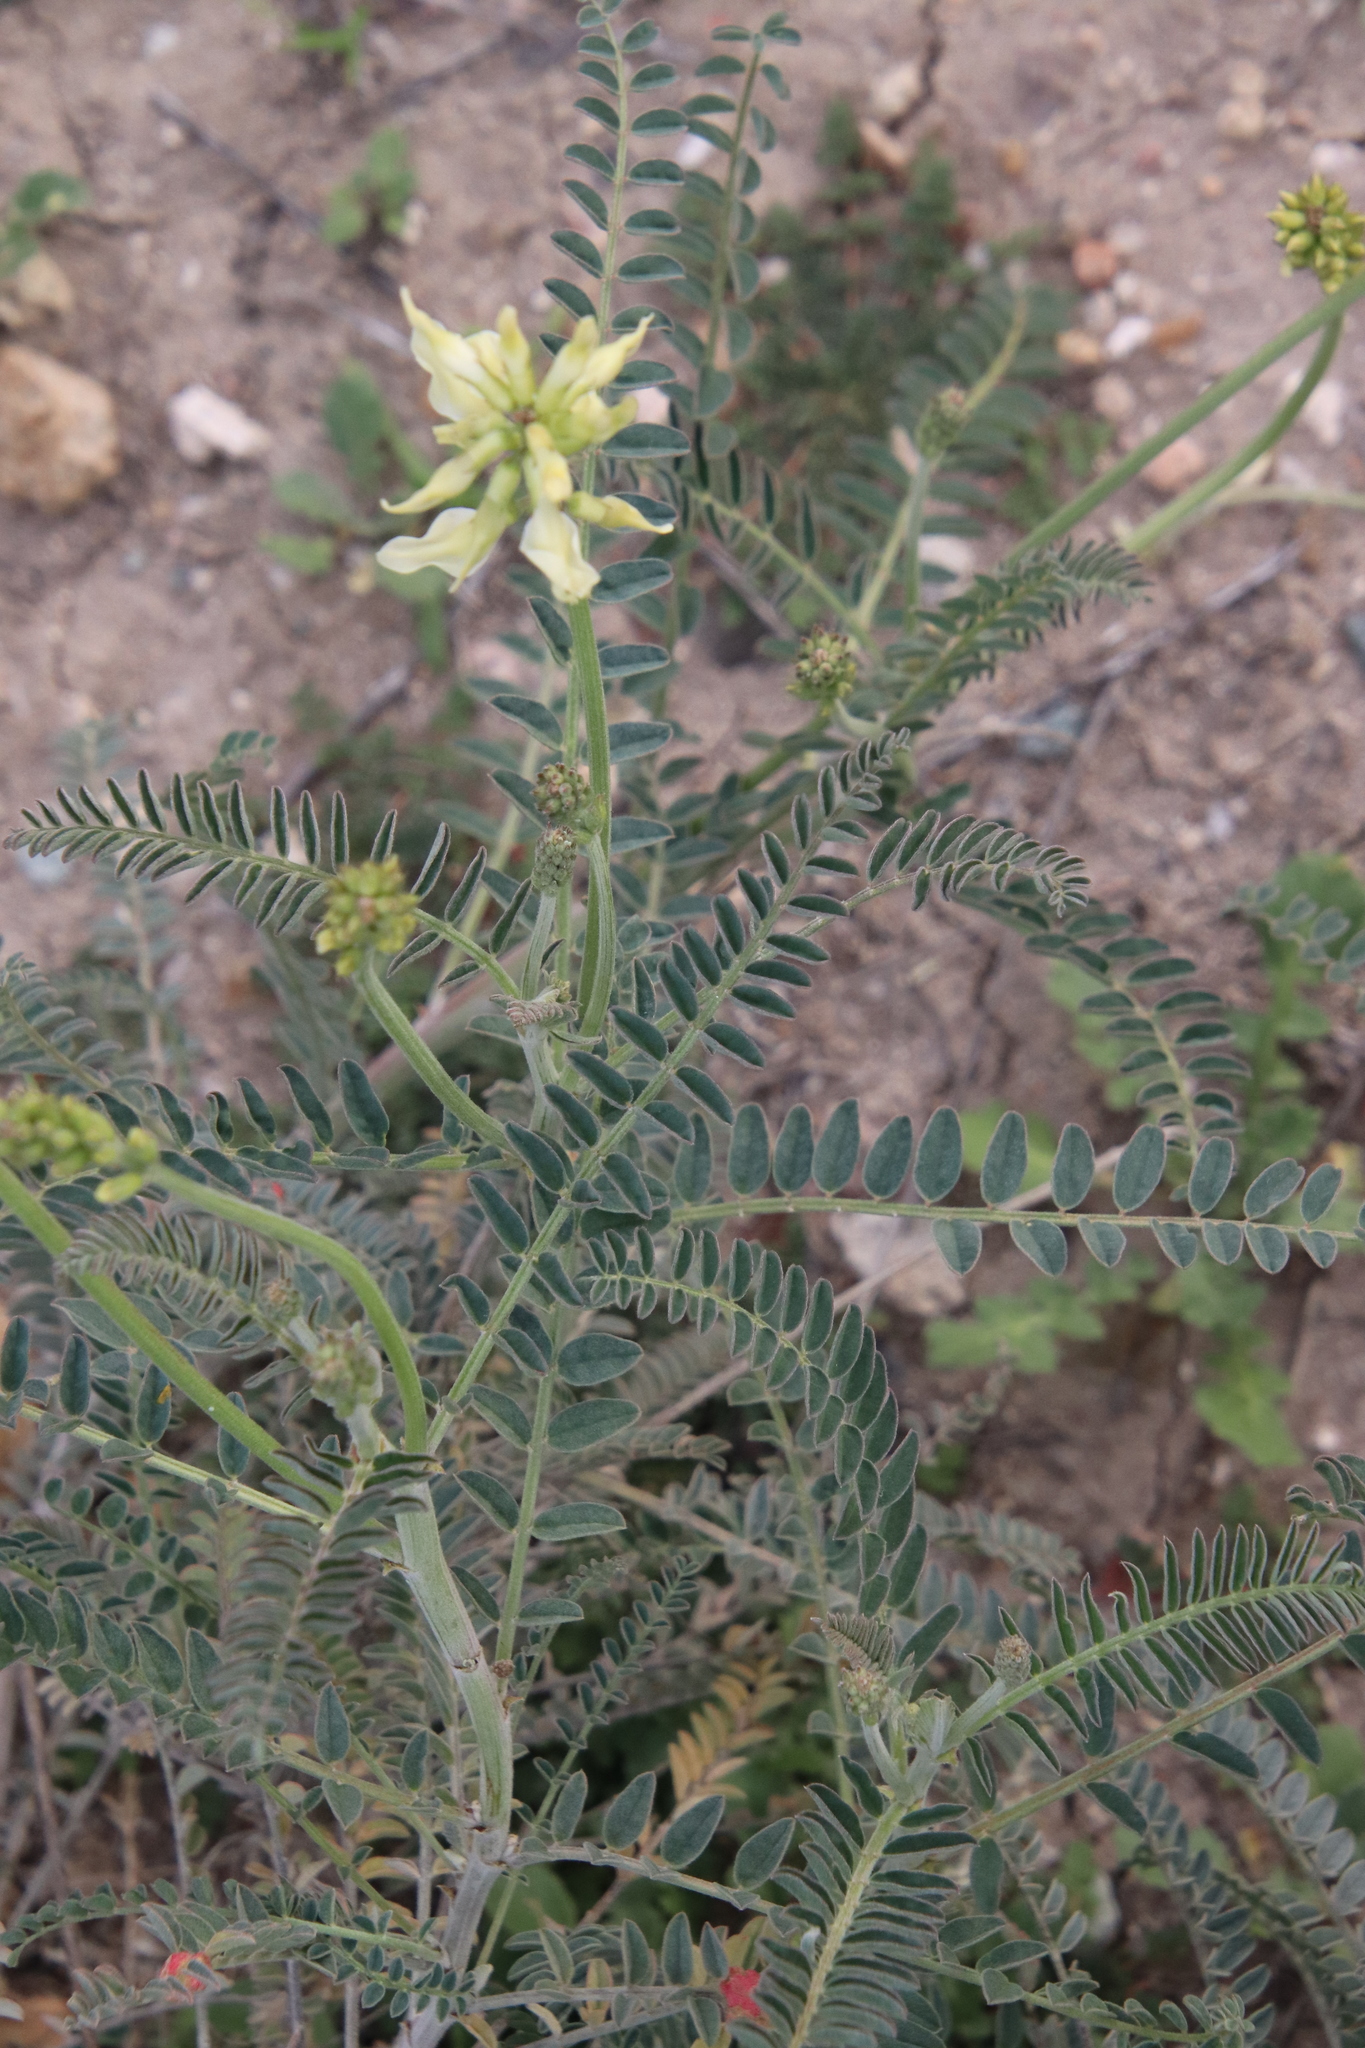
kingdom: Plantae
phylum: Tracheophyta
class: Magnoliopsida
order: Fabales
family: Fabaceae
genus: Astragalus
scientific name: Astragalus trichopodus
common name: Santa barbara milk-vetch
